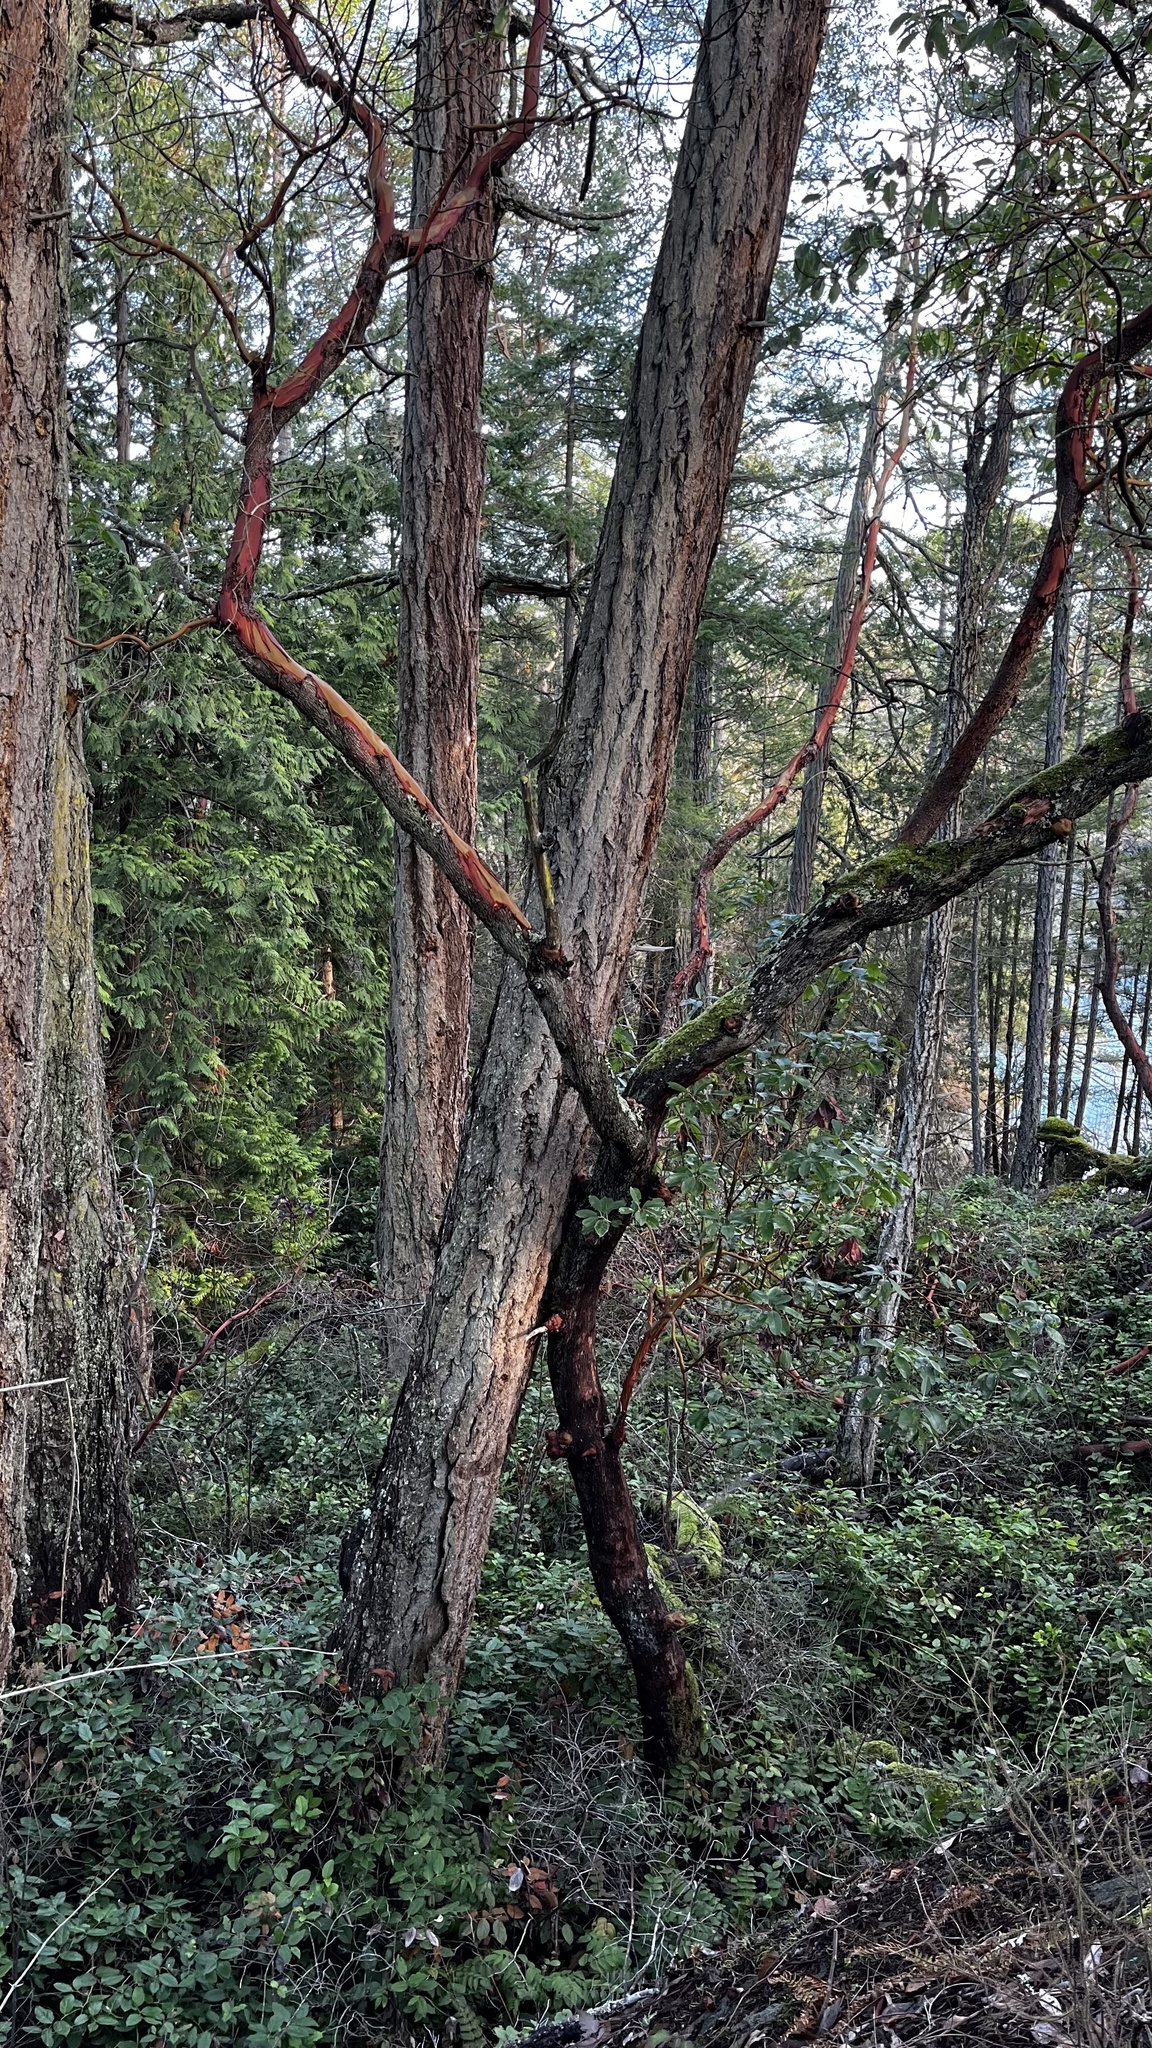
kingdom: Plantae
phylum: Tracheophyta
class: Magnoliopsida
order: Ericales
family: Ericaceae
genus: Arbutus
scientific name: Arbutus menziesii
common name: Pacific madrone
